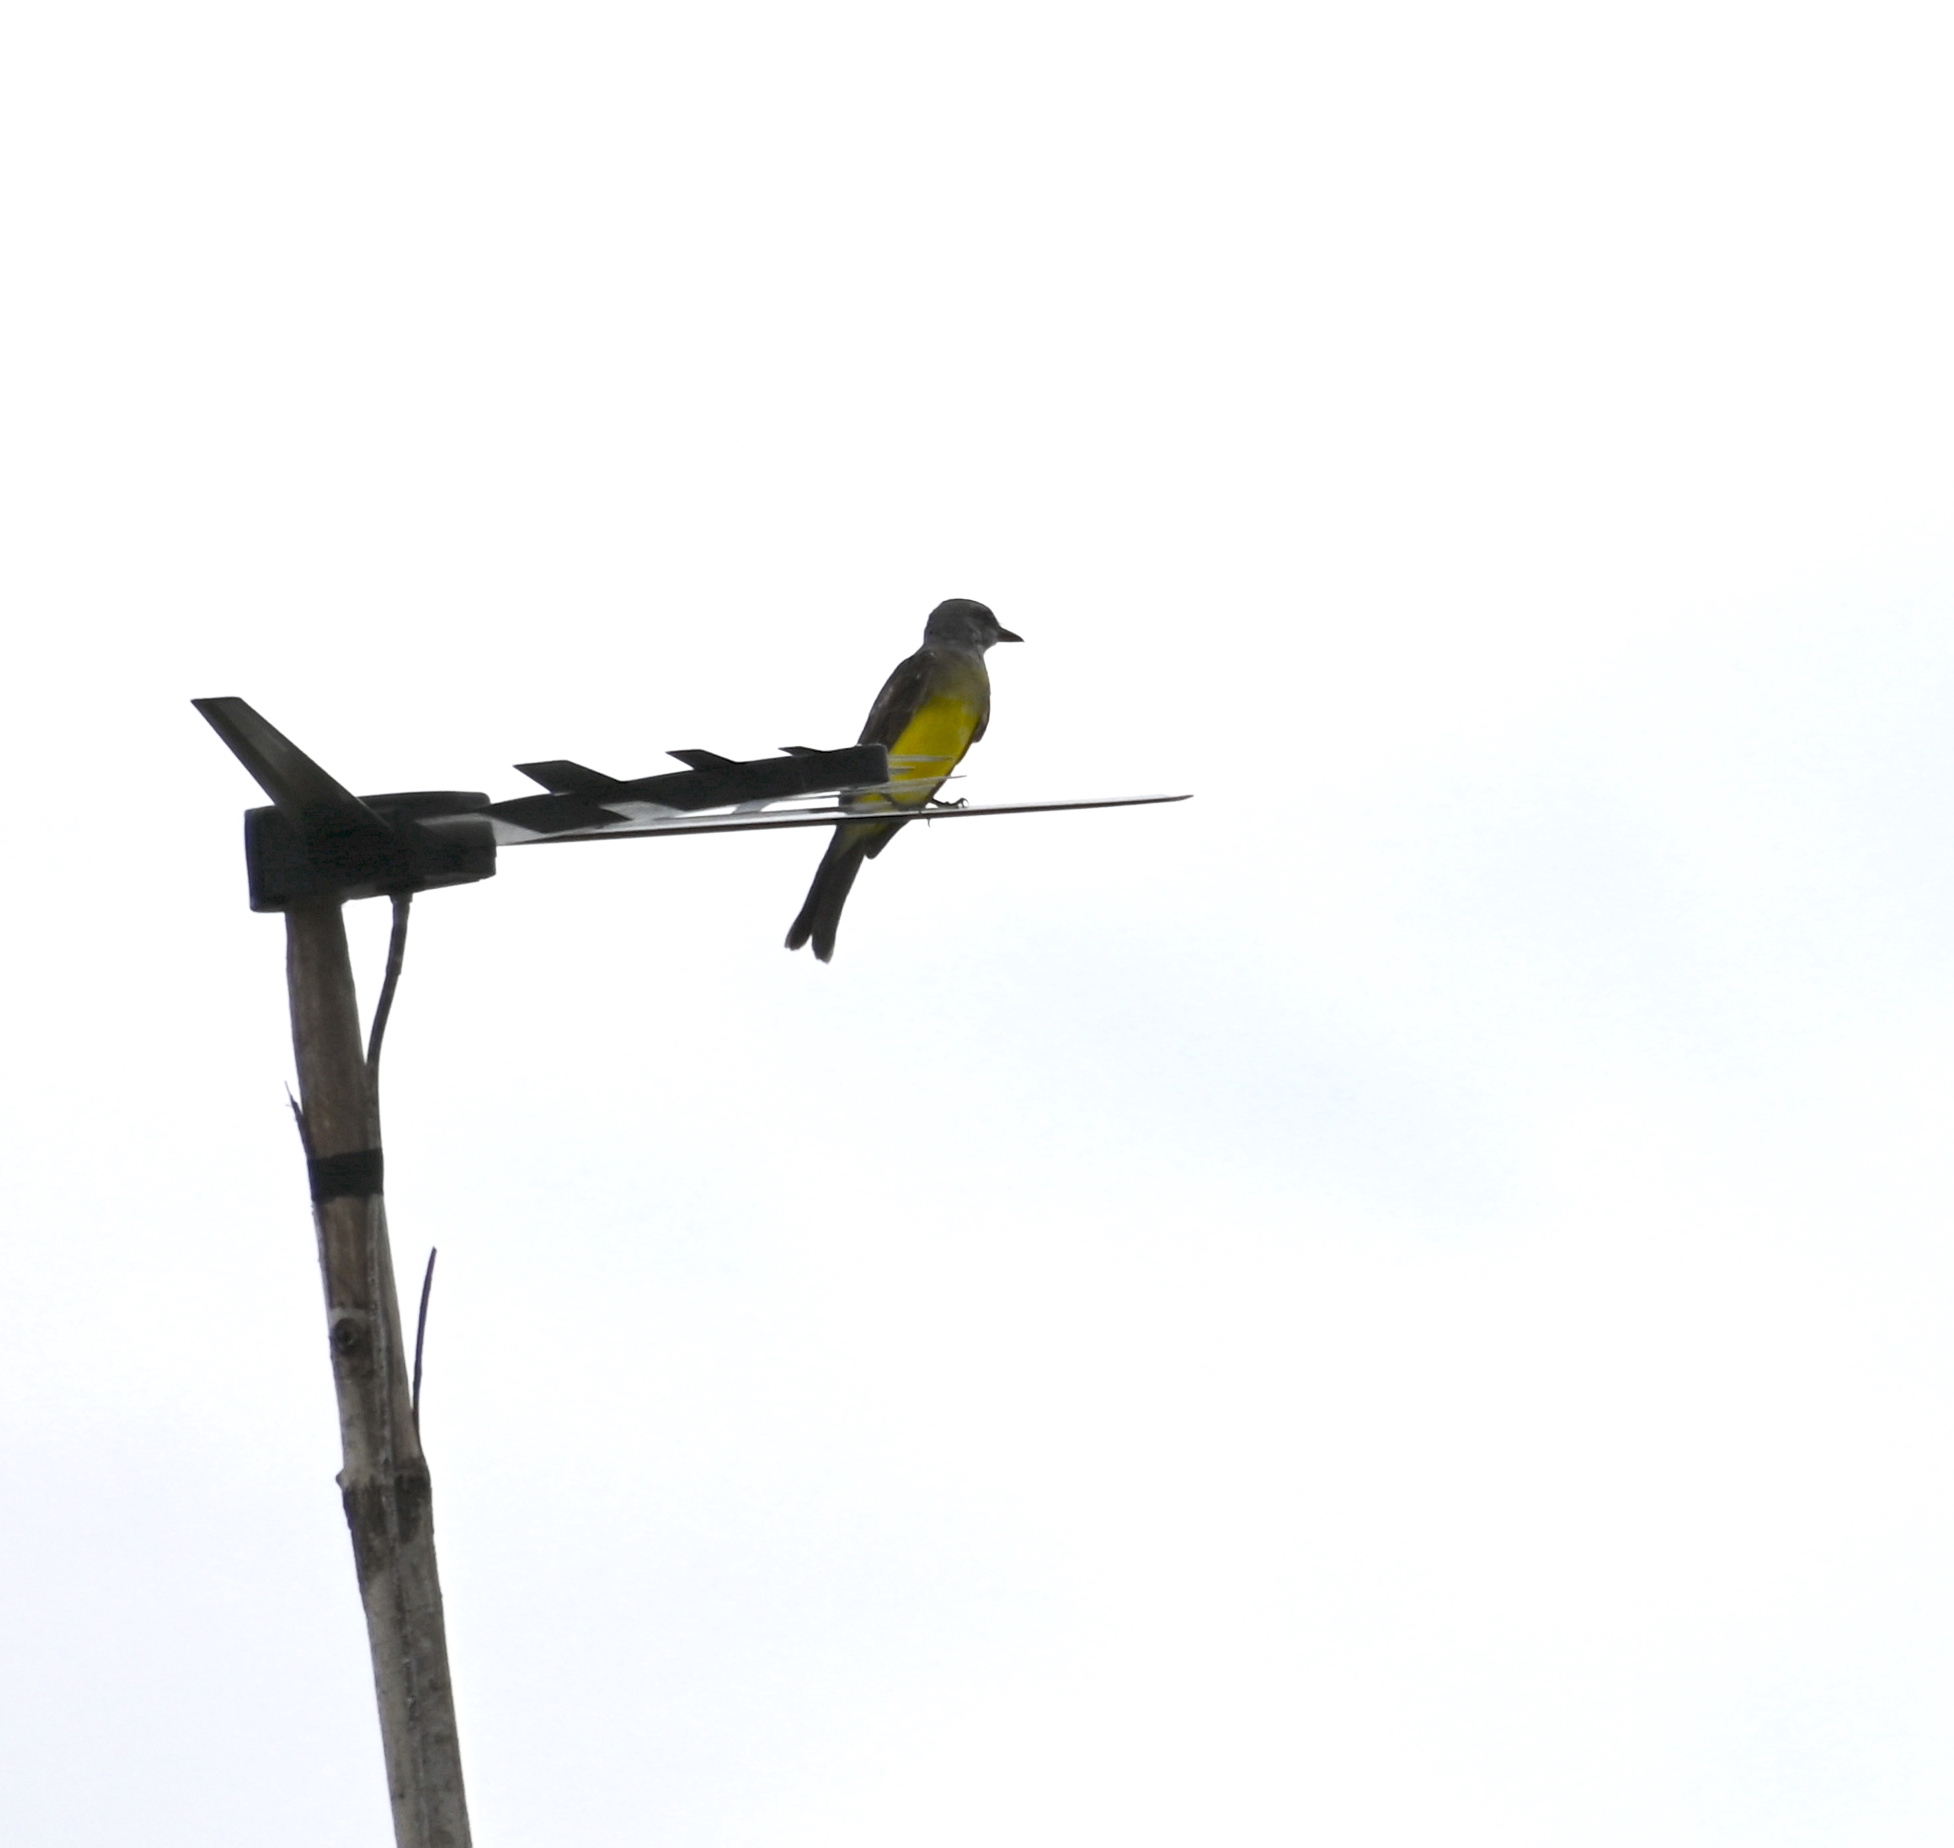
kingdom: Animalia
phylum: Chordata
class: Aves
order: Passeriformes
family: Tyrannidae
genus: Tyrannus
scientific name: Tyrannus melancholicus
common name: Tropical kingbird
